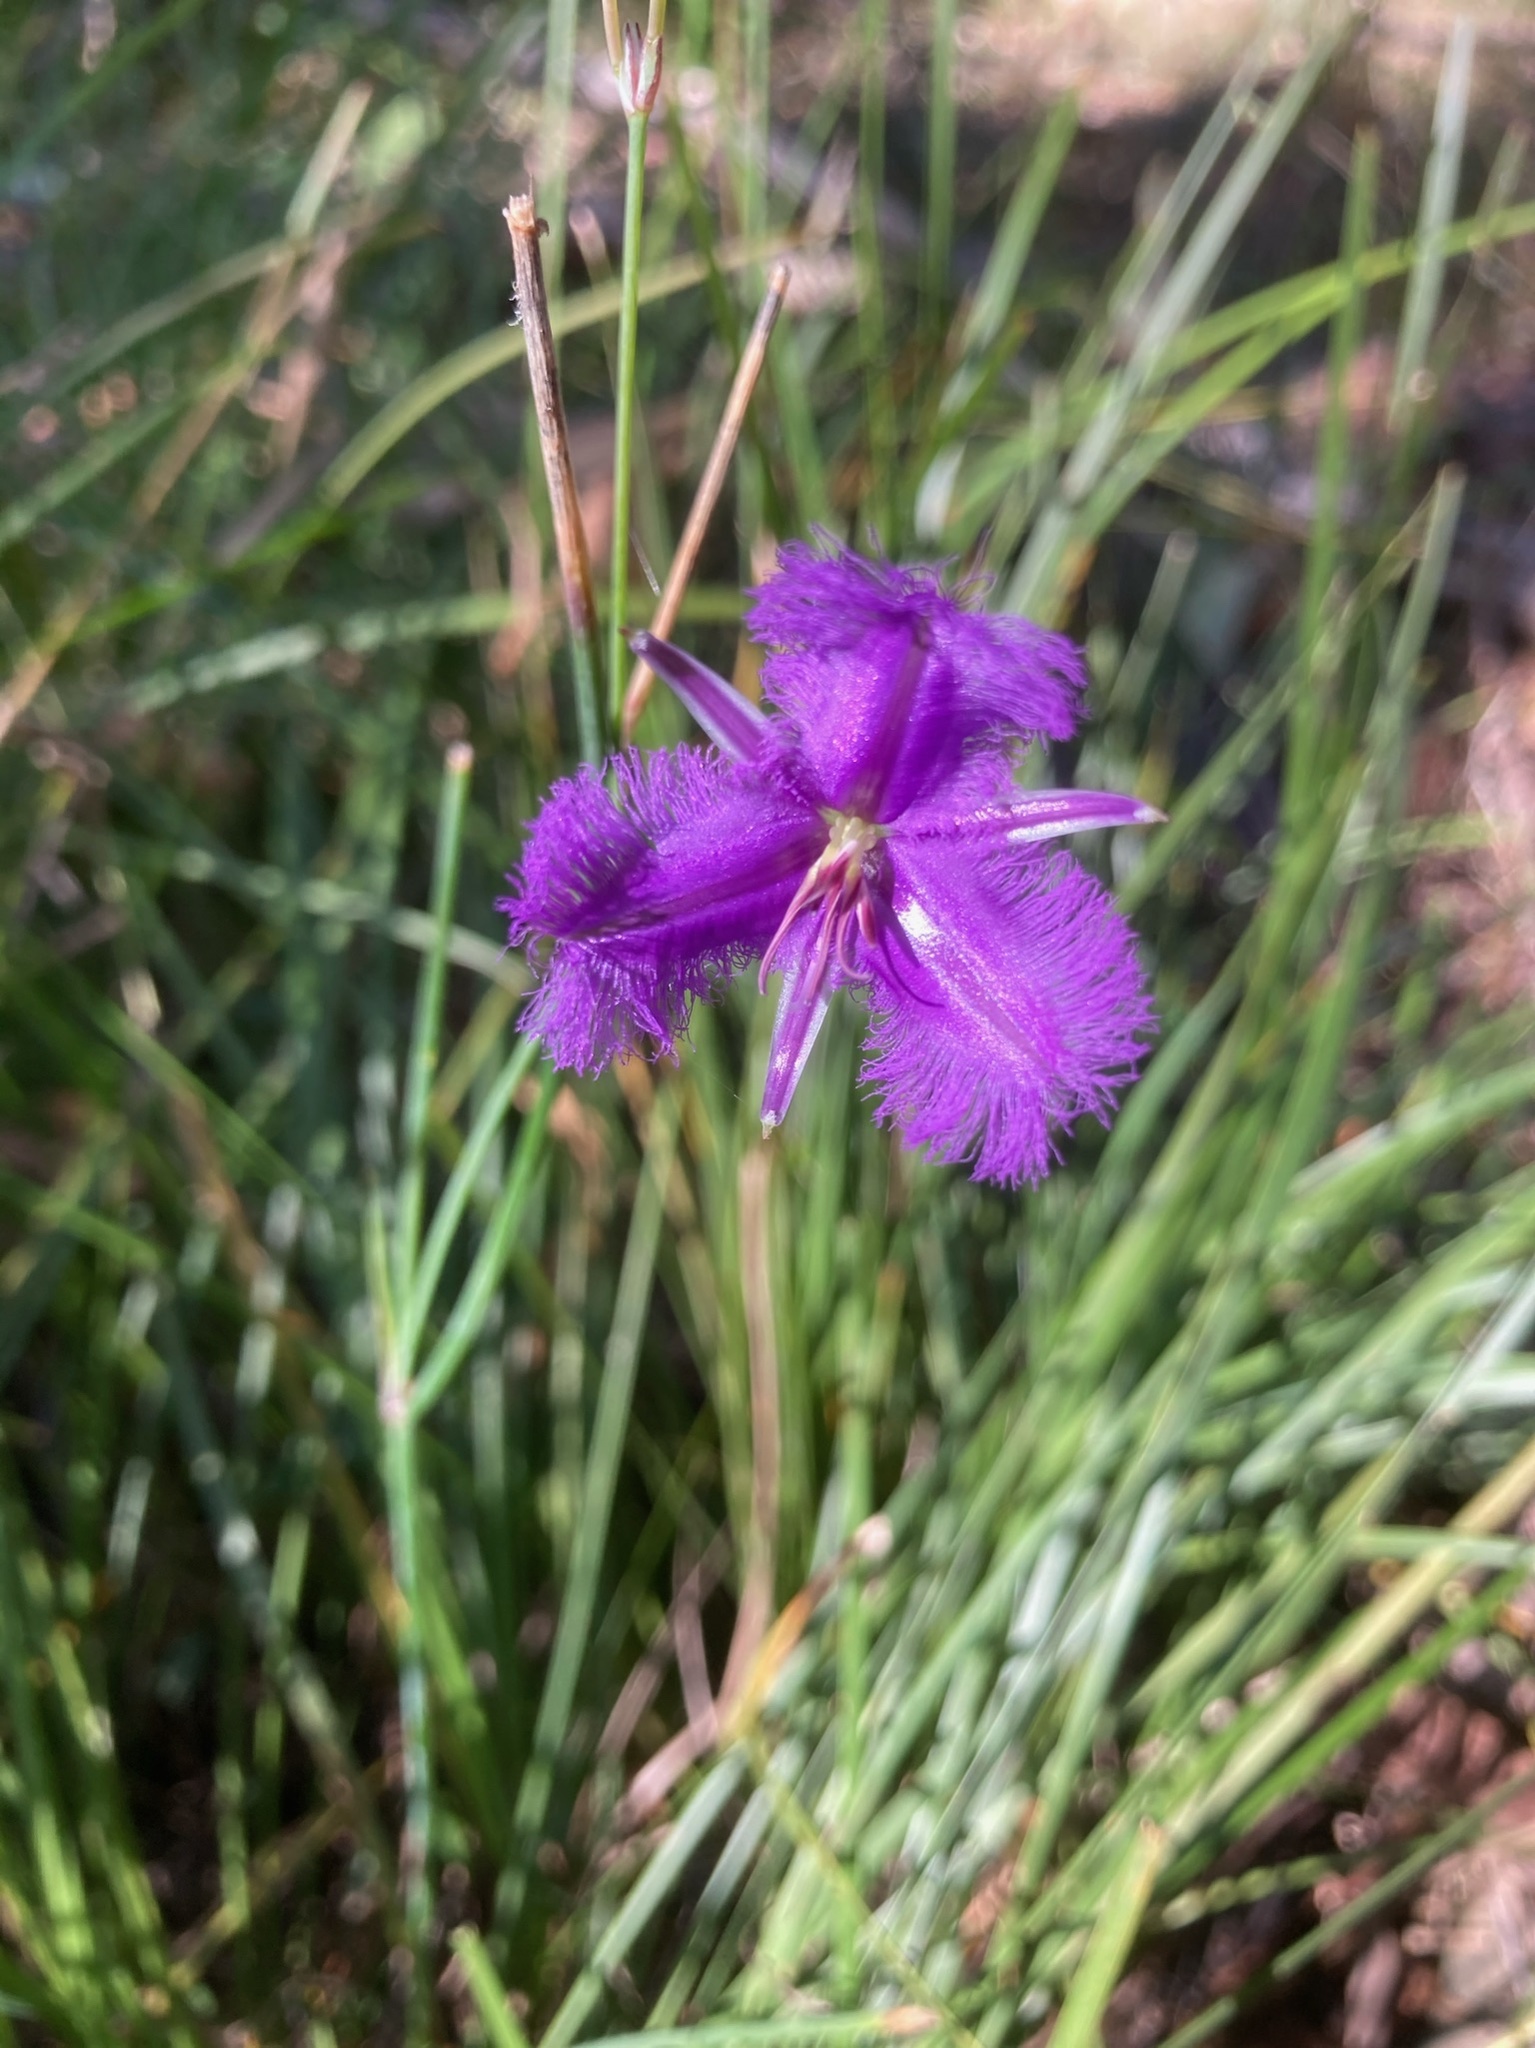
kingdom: Plantae
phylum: Tracheophyta
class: Liliopsida
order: Asparagales
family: Asparagaceae
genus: Thysanotus
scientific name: Thysanotus tuberosus
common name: Common fringed-lily
